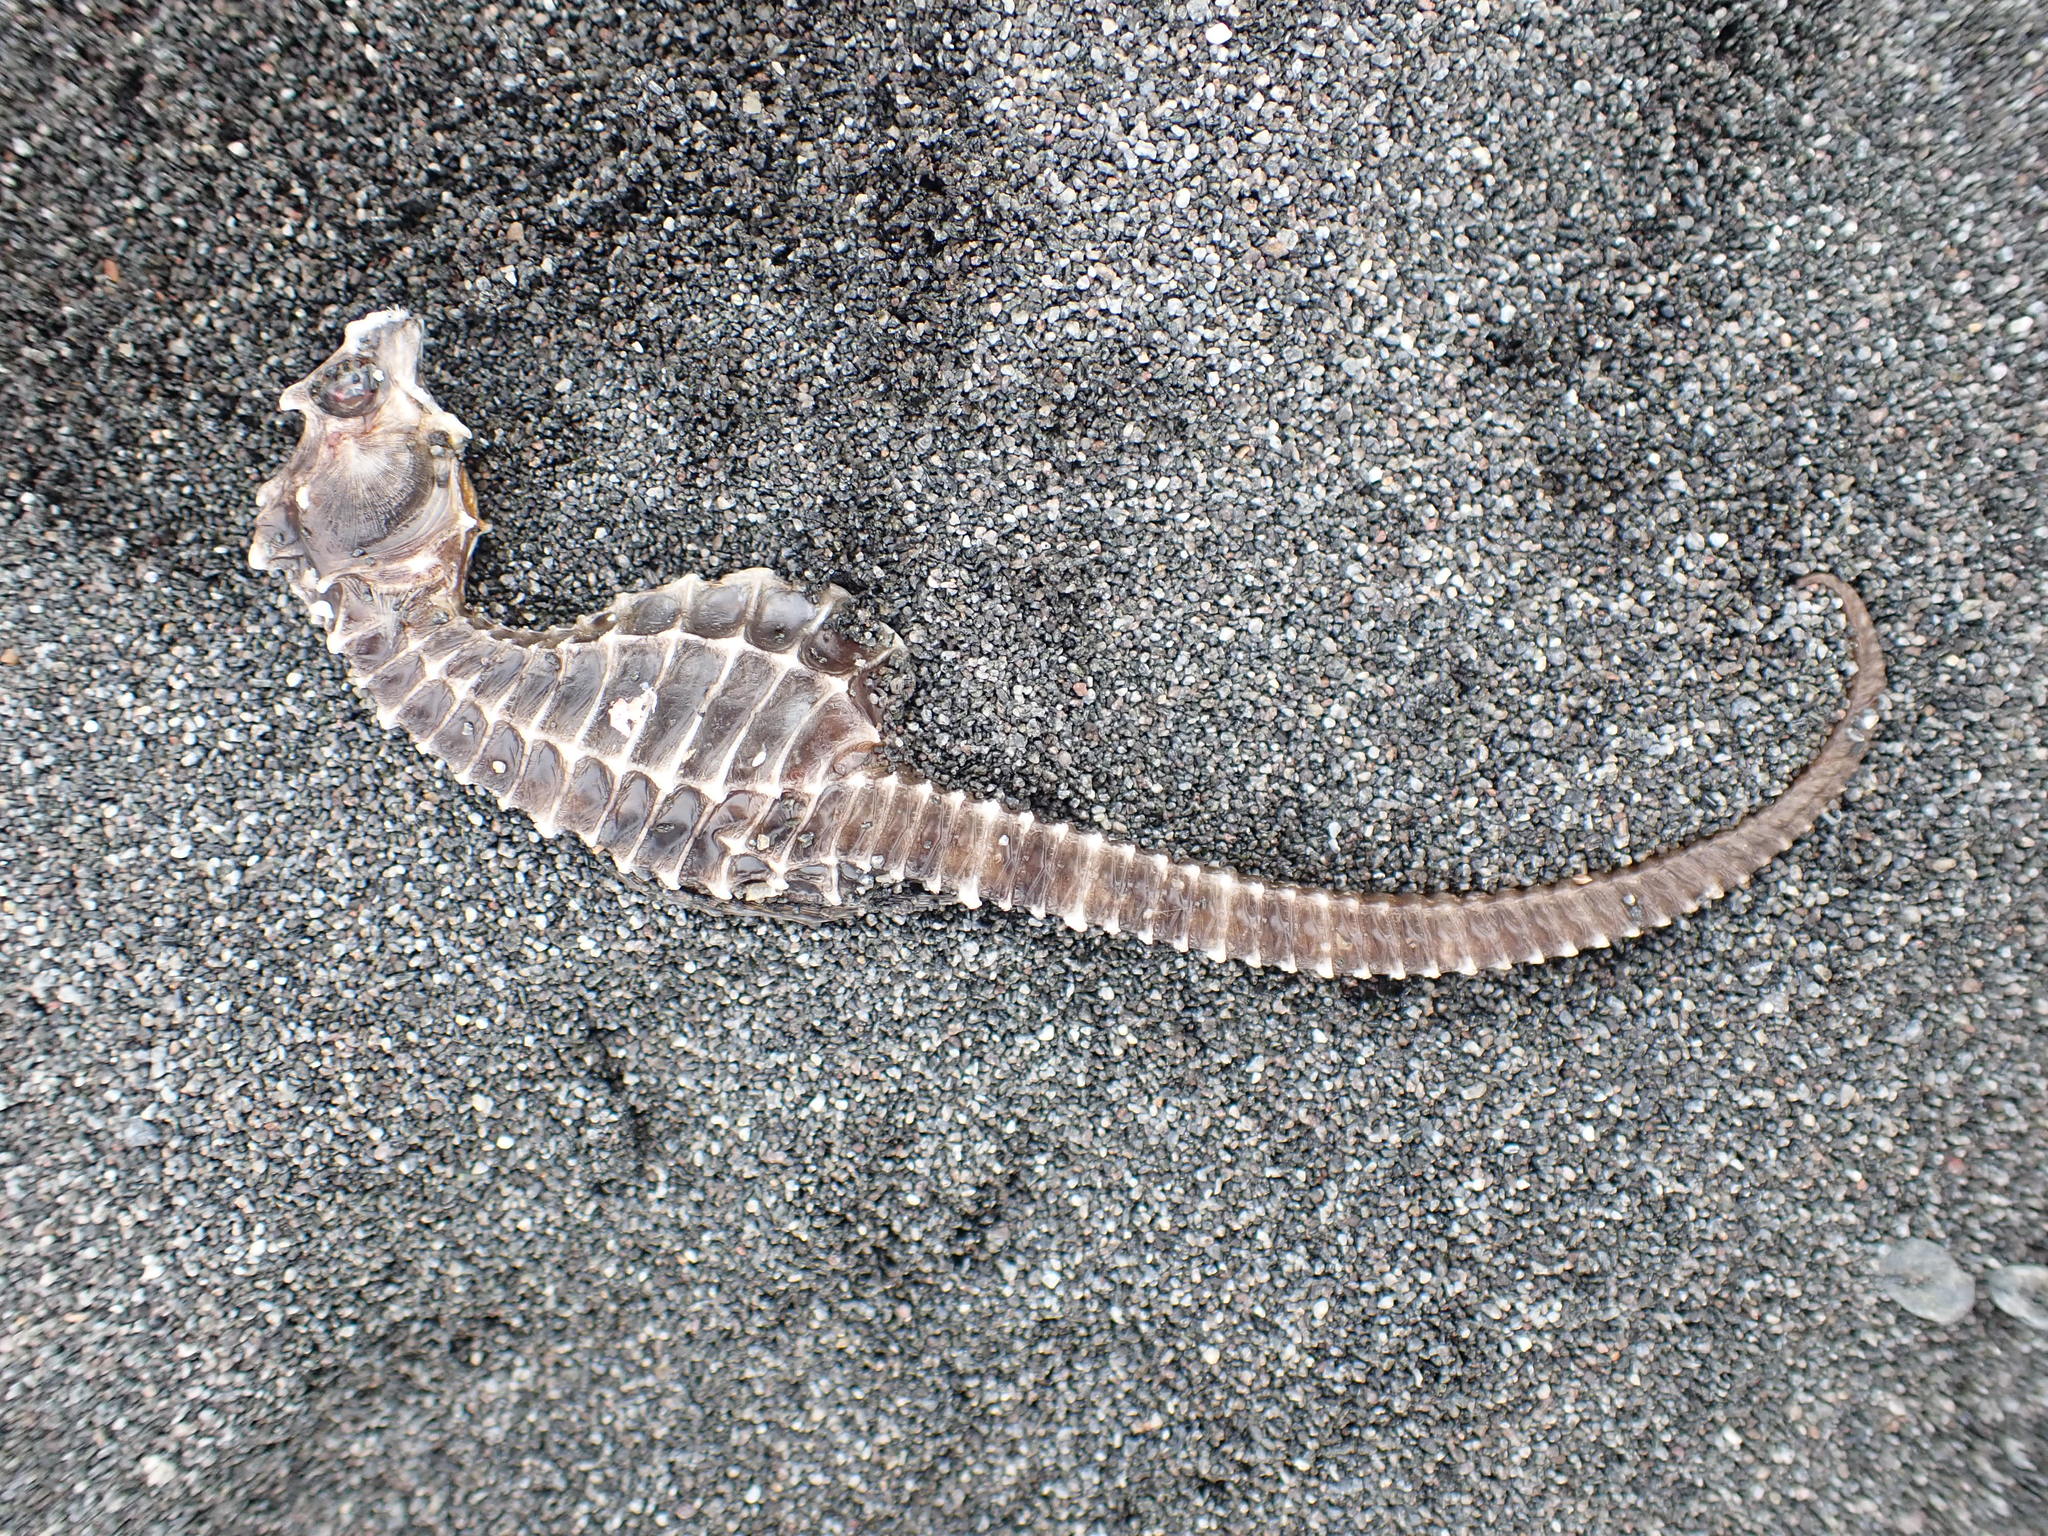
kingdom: Animalia
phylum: Chordata
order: Syngnathiformes
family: Syngnathidae
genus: Hippocampus
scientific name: Hippocampus abdominalis
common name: Big-belly seahorse
